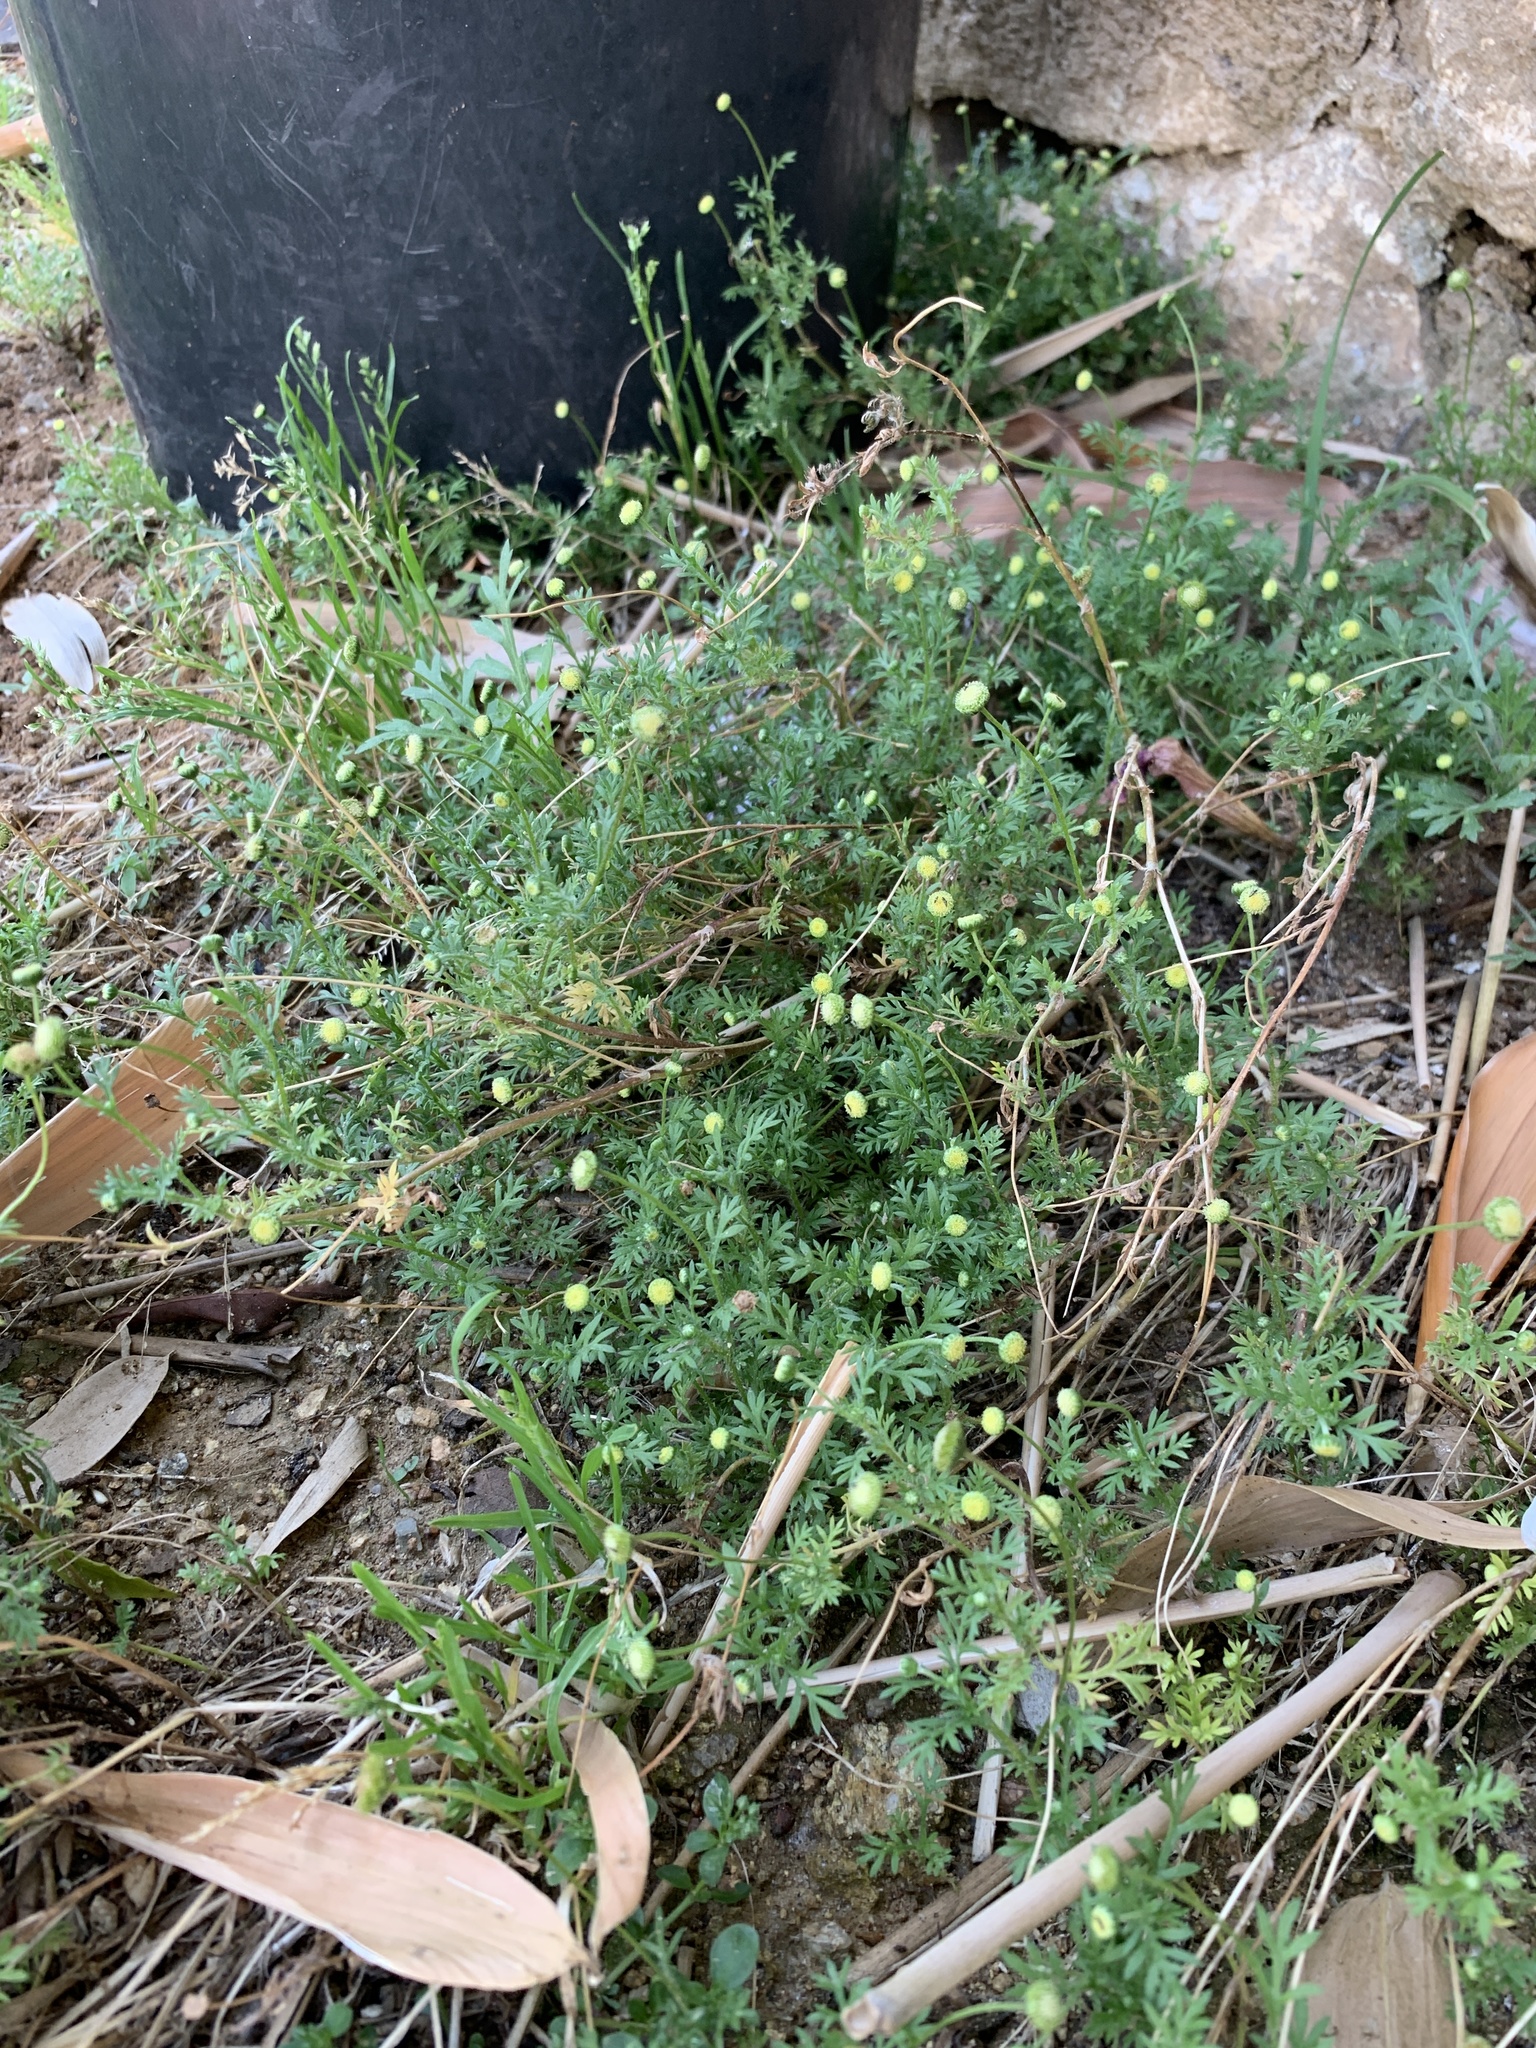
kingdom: Plantae
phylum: Tracheophyta
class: Magnoliopsida
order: Asterales
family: Asteraceae
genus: Cotula
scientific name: Cotula australis
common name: Australian waterbuttons
